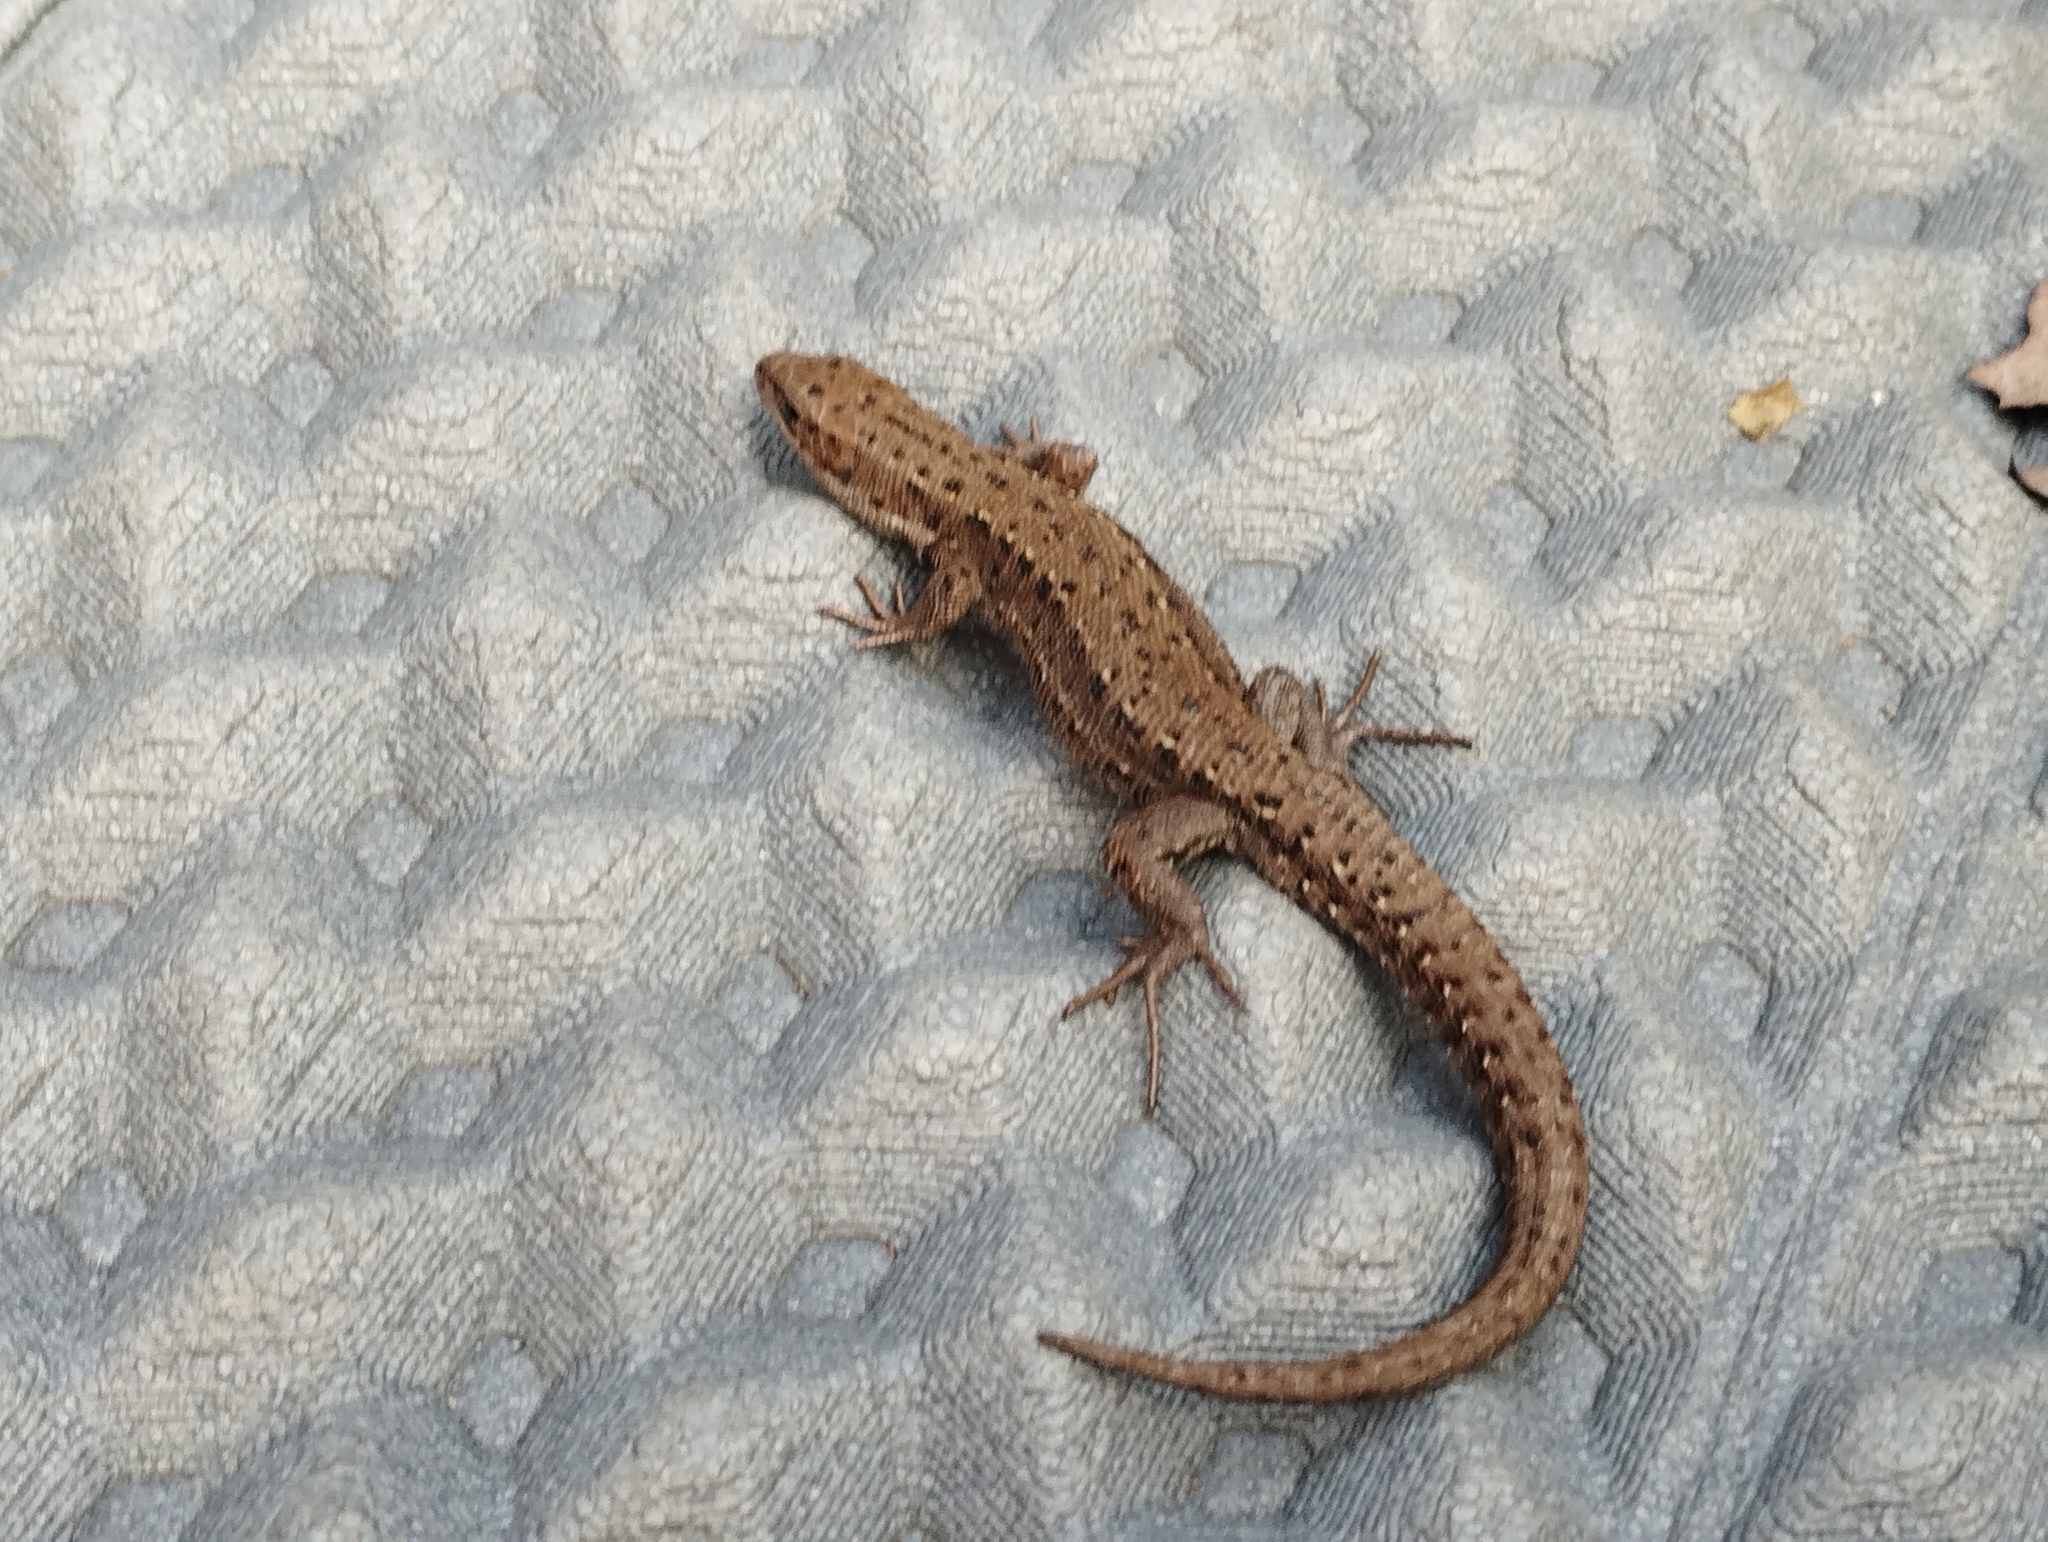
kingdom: Animalia
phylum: Chordata
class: Squamata
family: Lacertidae
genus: Zootoca
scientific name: Zootoca vivipara
